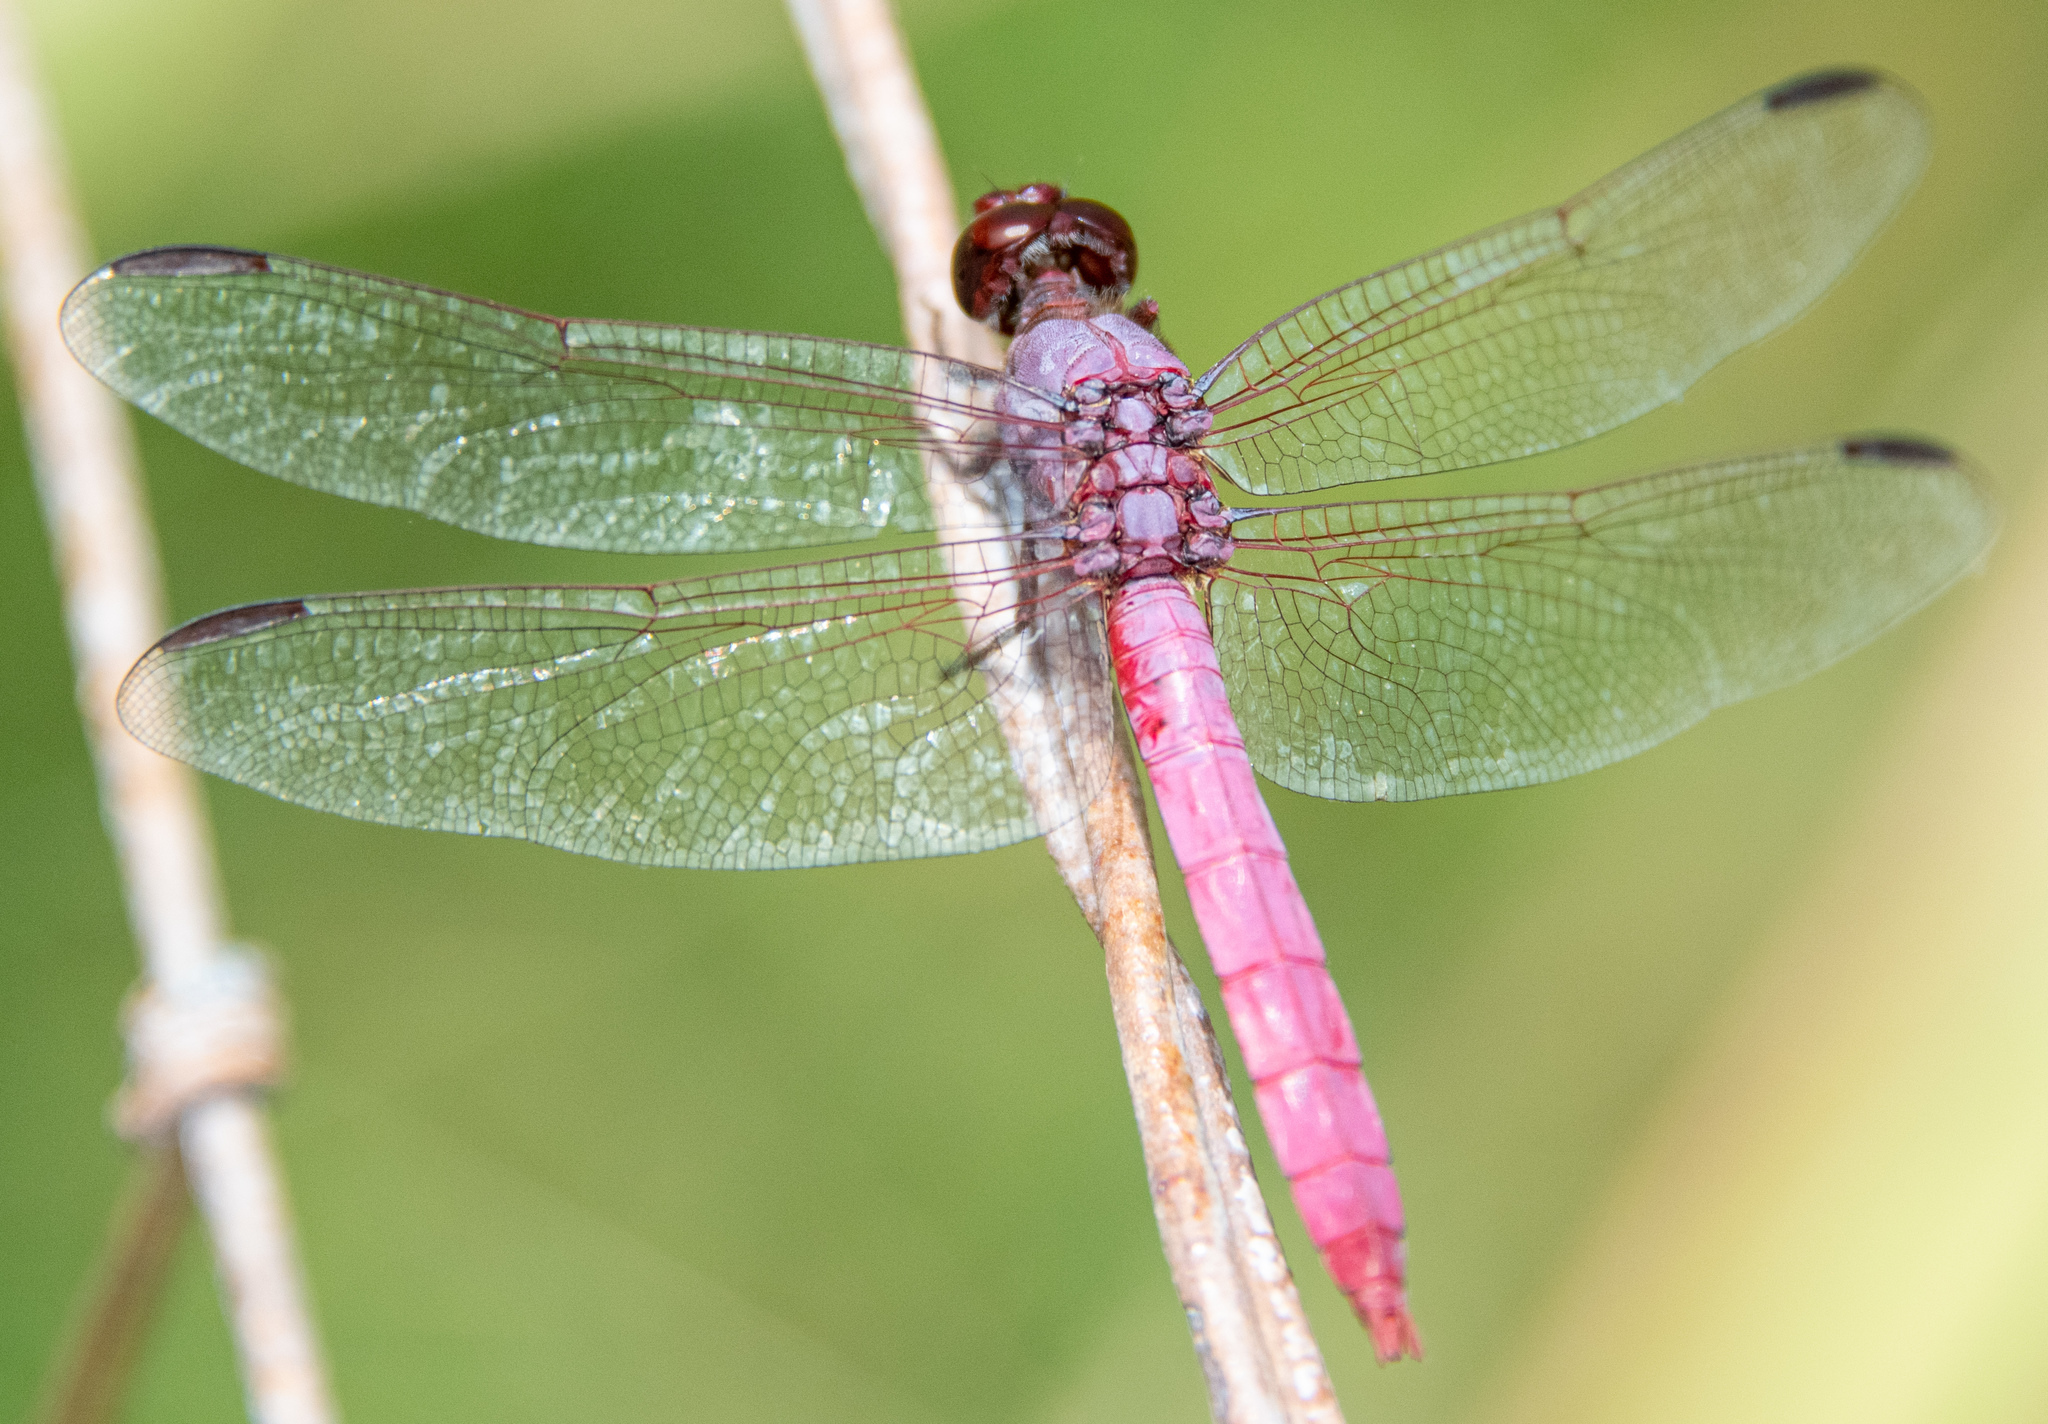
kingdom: Animalia
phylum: Arthropoda
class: Insecta
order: Odonata
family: Libellulidae
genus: Orthemis
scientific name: Orthemis ferruginea
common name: Roseate skimmer
